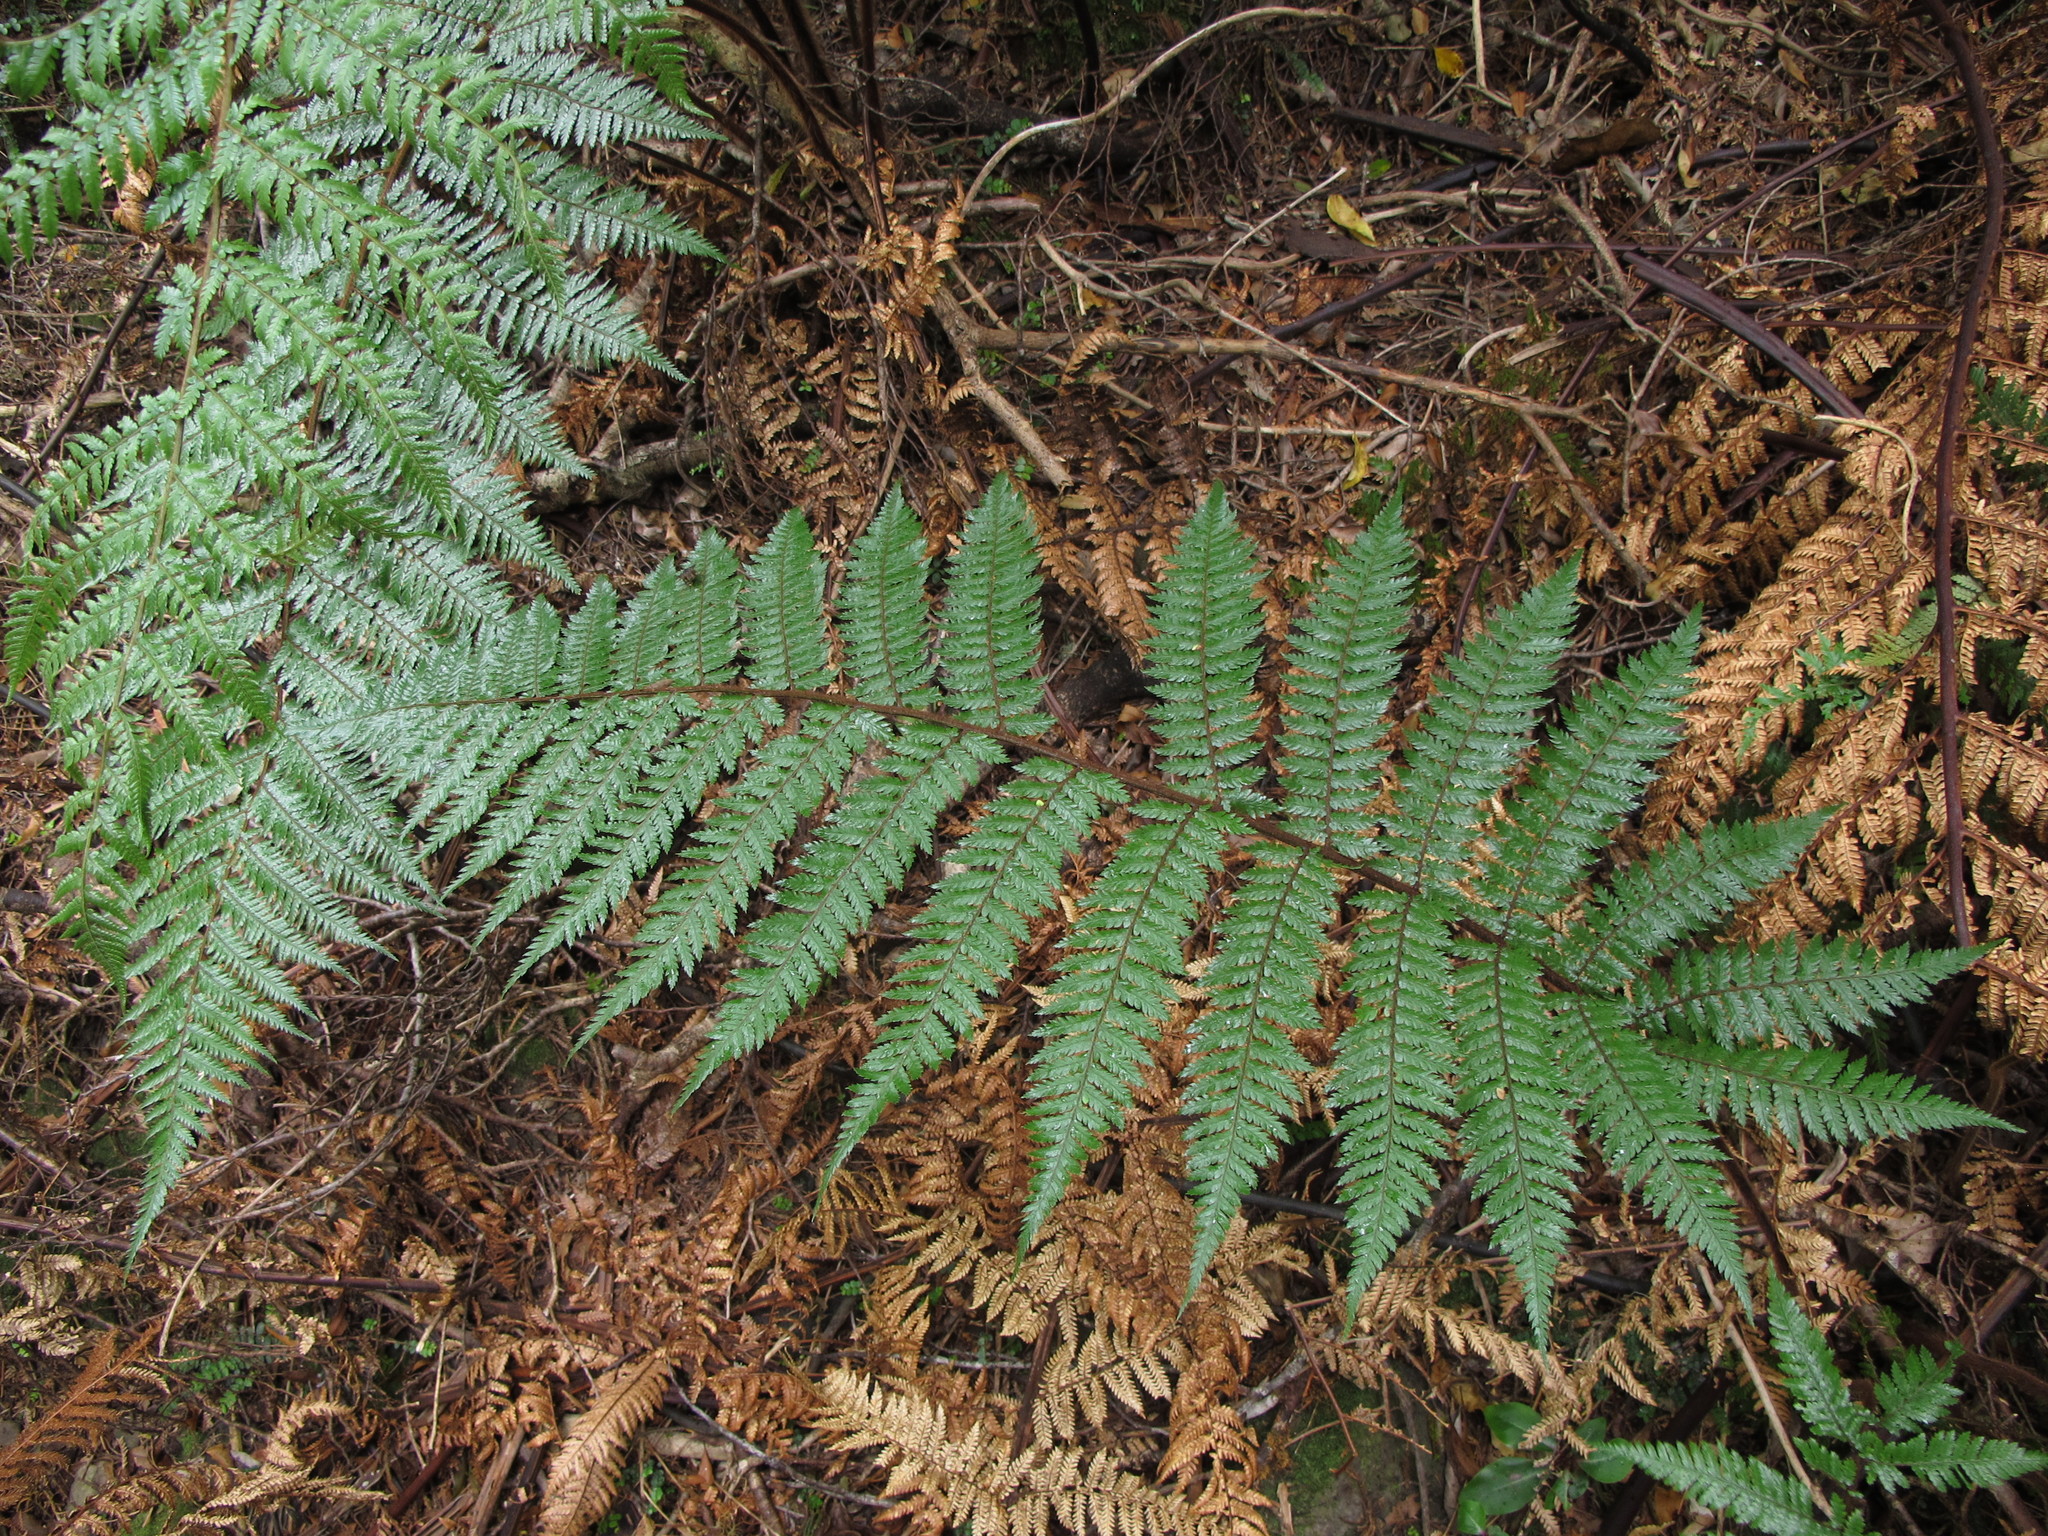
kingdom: Plantae
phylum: Tracheophyta
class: Polypodiopsida
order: Cyatheales
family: Dicksoniaceae
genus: Dicksonia
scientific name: Dicksonia squarrosa
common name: Hard treefern
